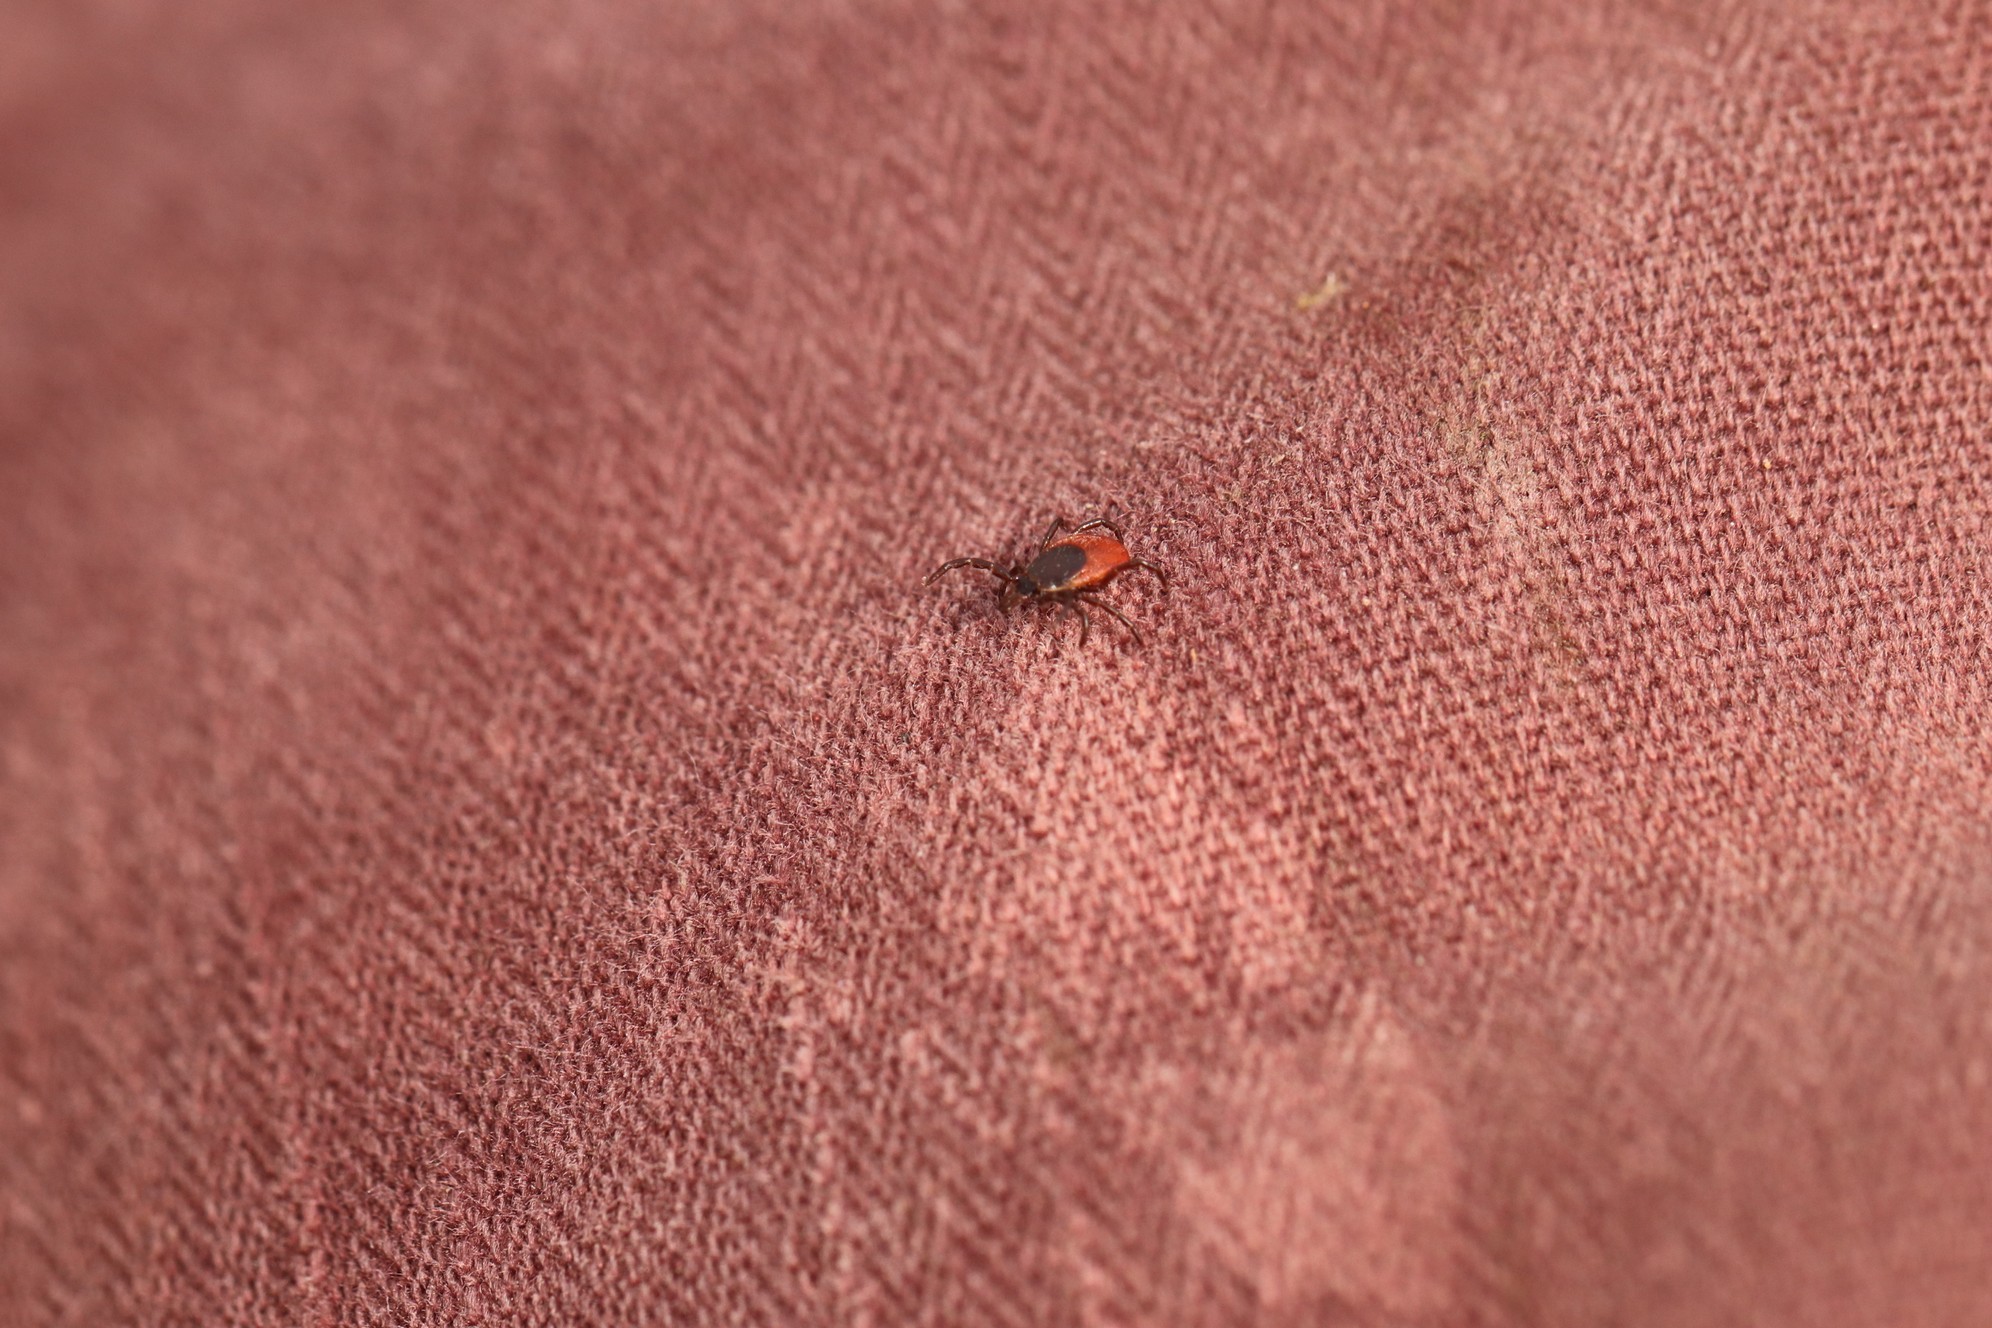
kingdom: Animalia
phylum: Arthropoda
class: Arachnida
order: Ixodida
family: Ixodidae
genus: Ixodes
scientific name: Ixodes persulcatus
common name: Taiga tick
